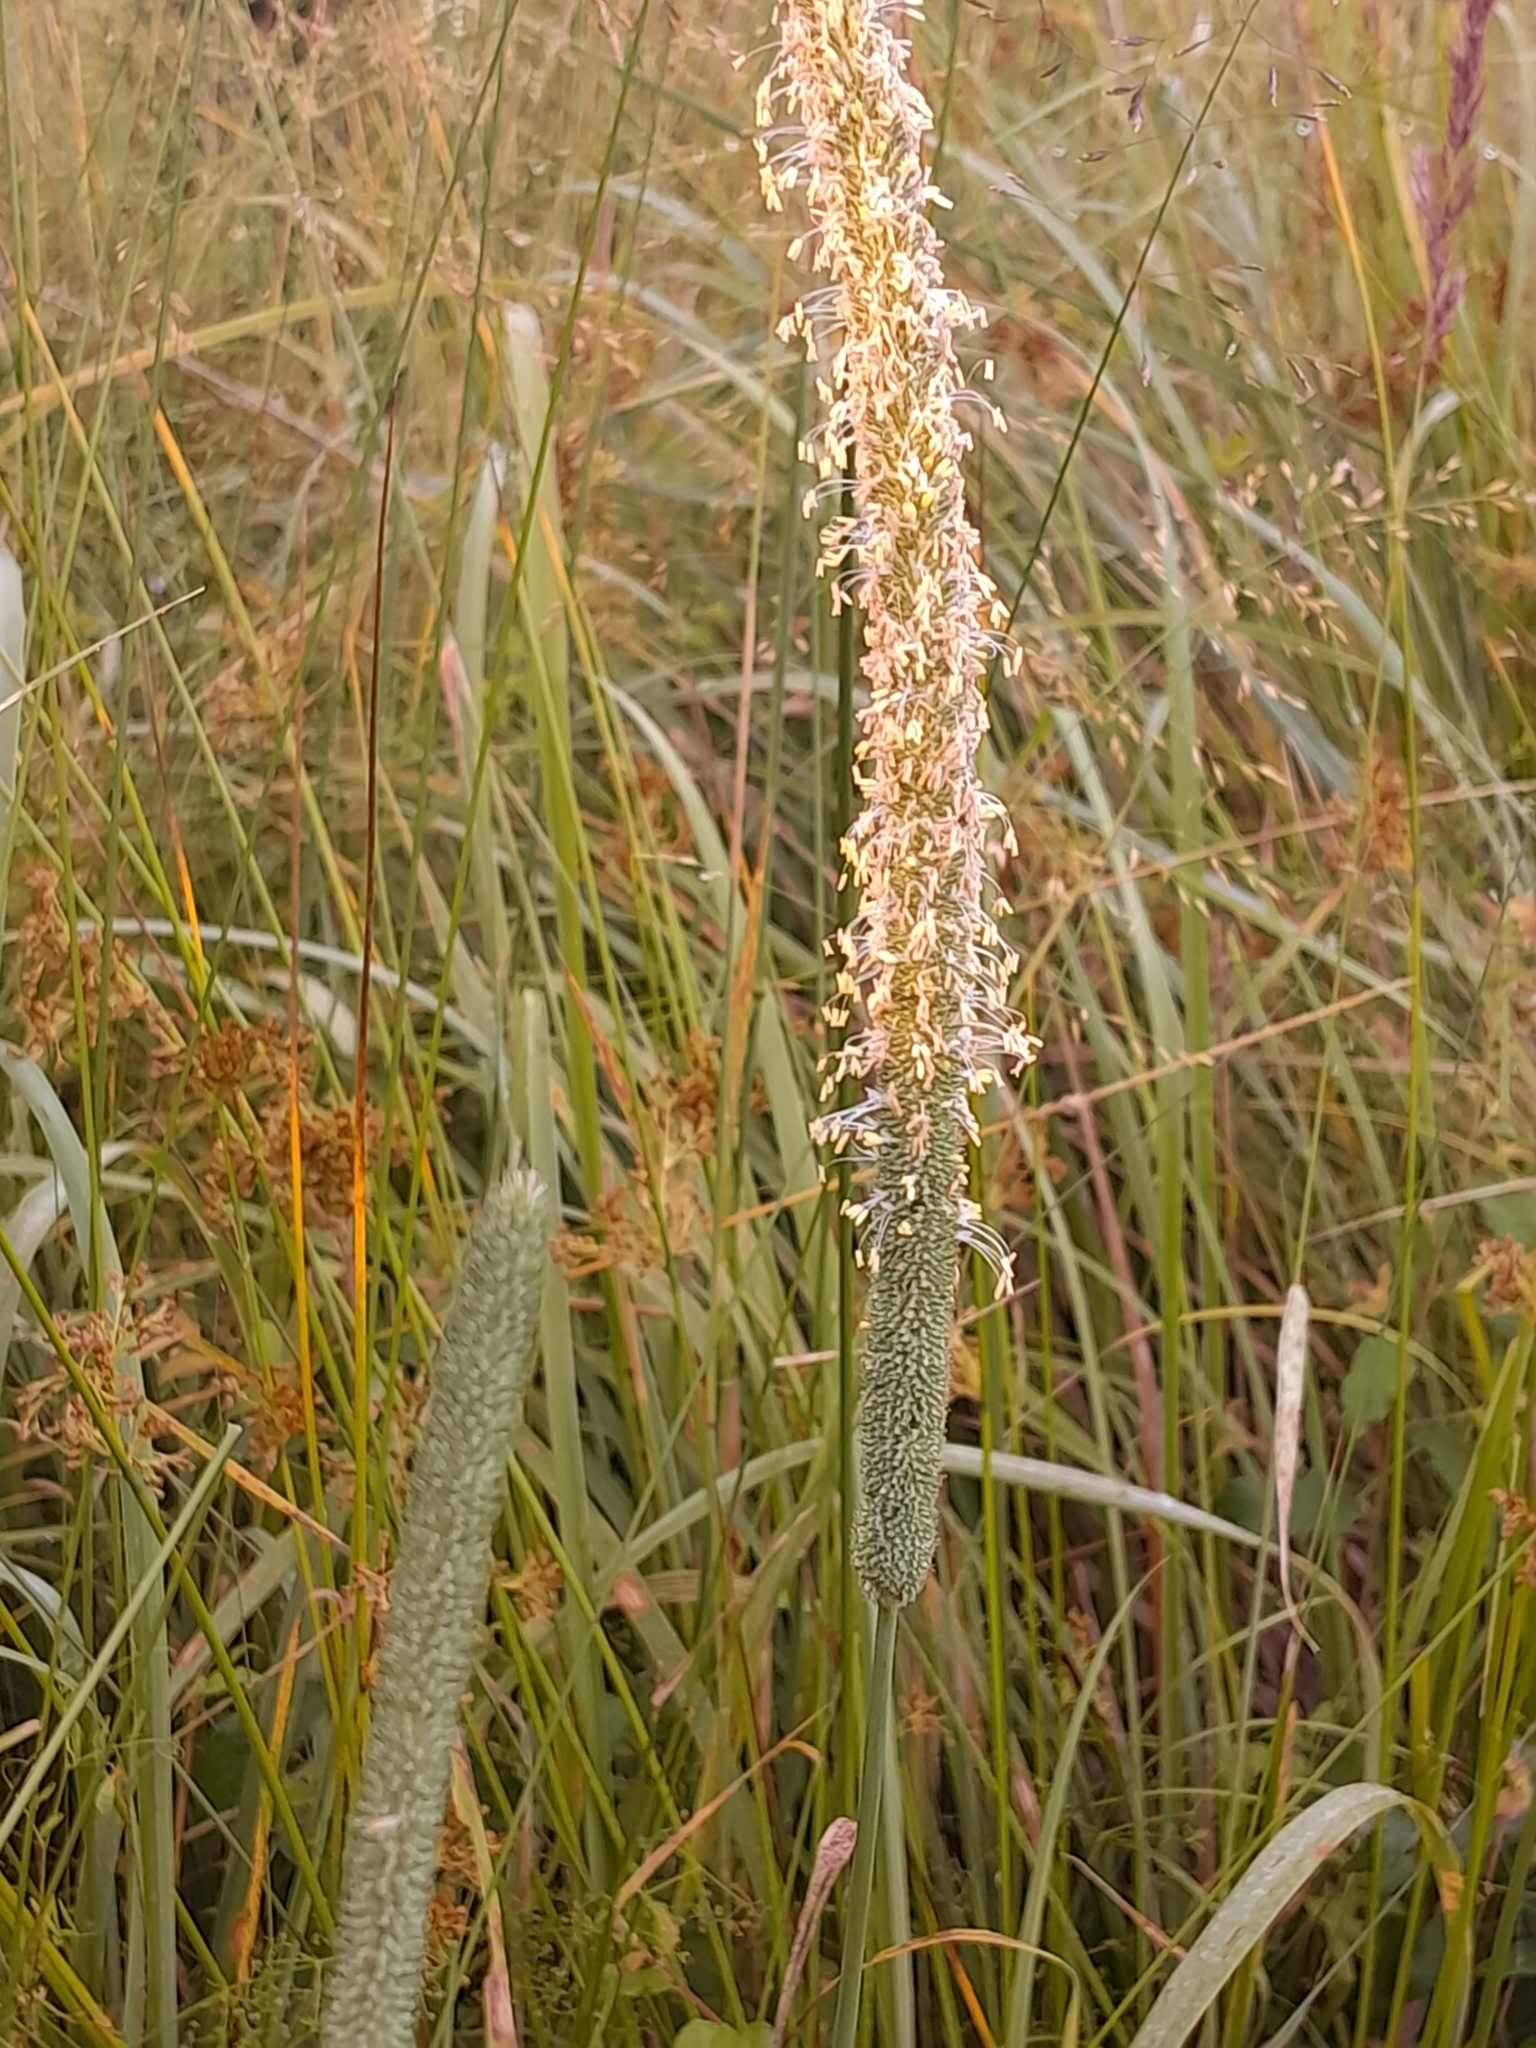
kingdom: Plantae
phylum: Tracheophyta
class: Liliopsida
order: Poales
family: Poaceae
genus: Phleum
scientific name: Phleum pratense
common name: Timothy grass
